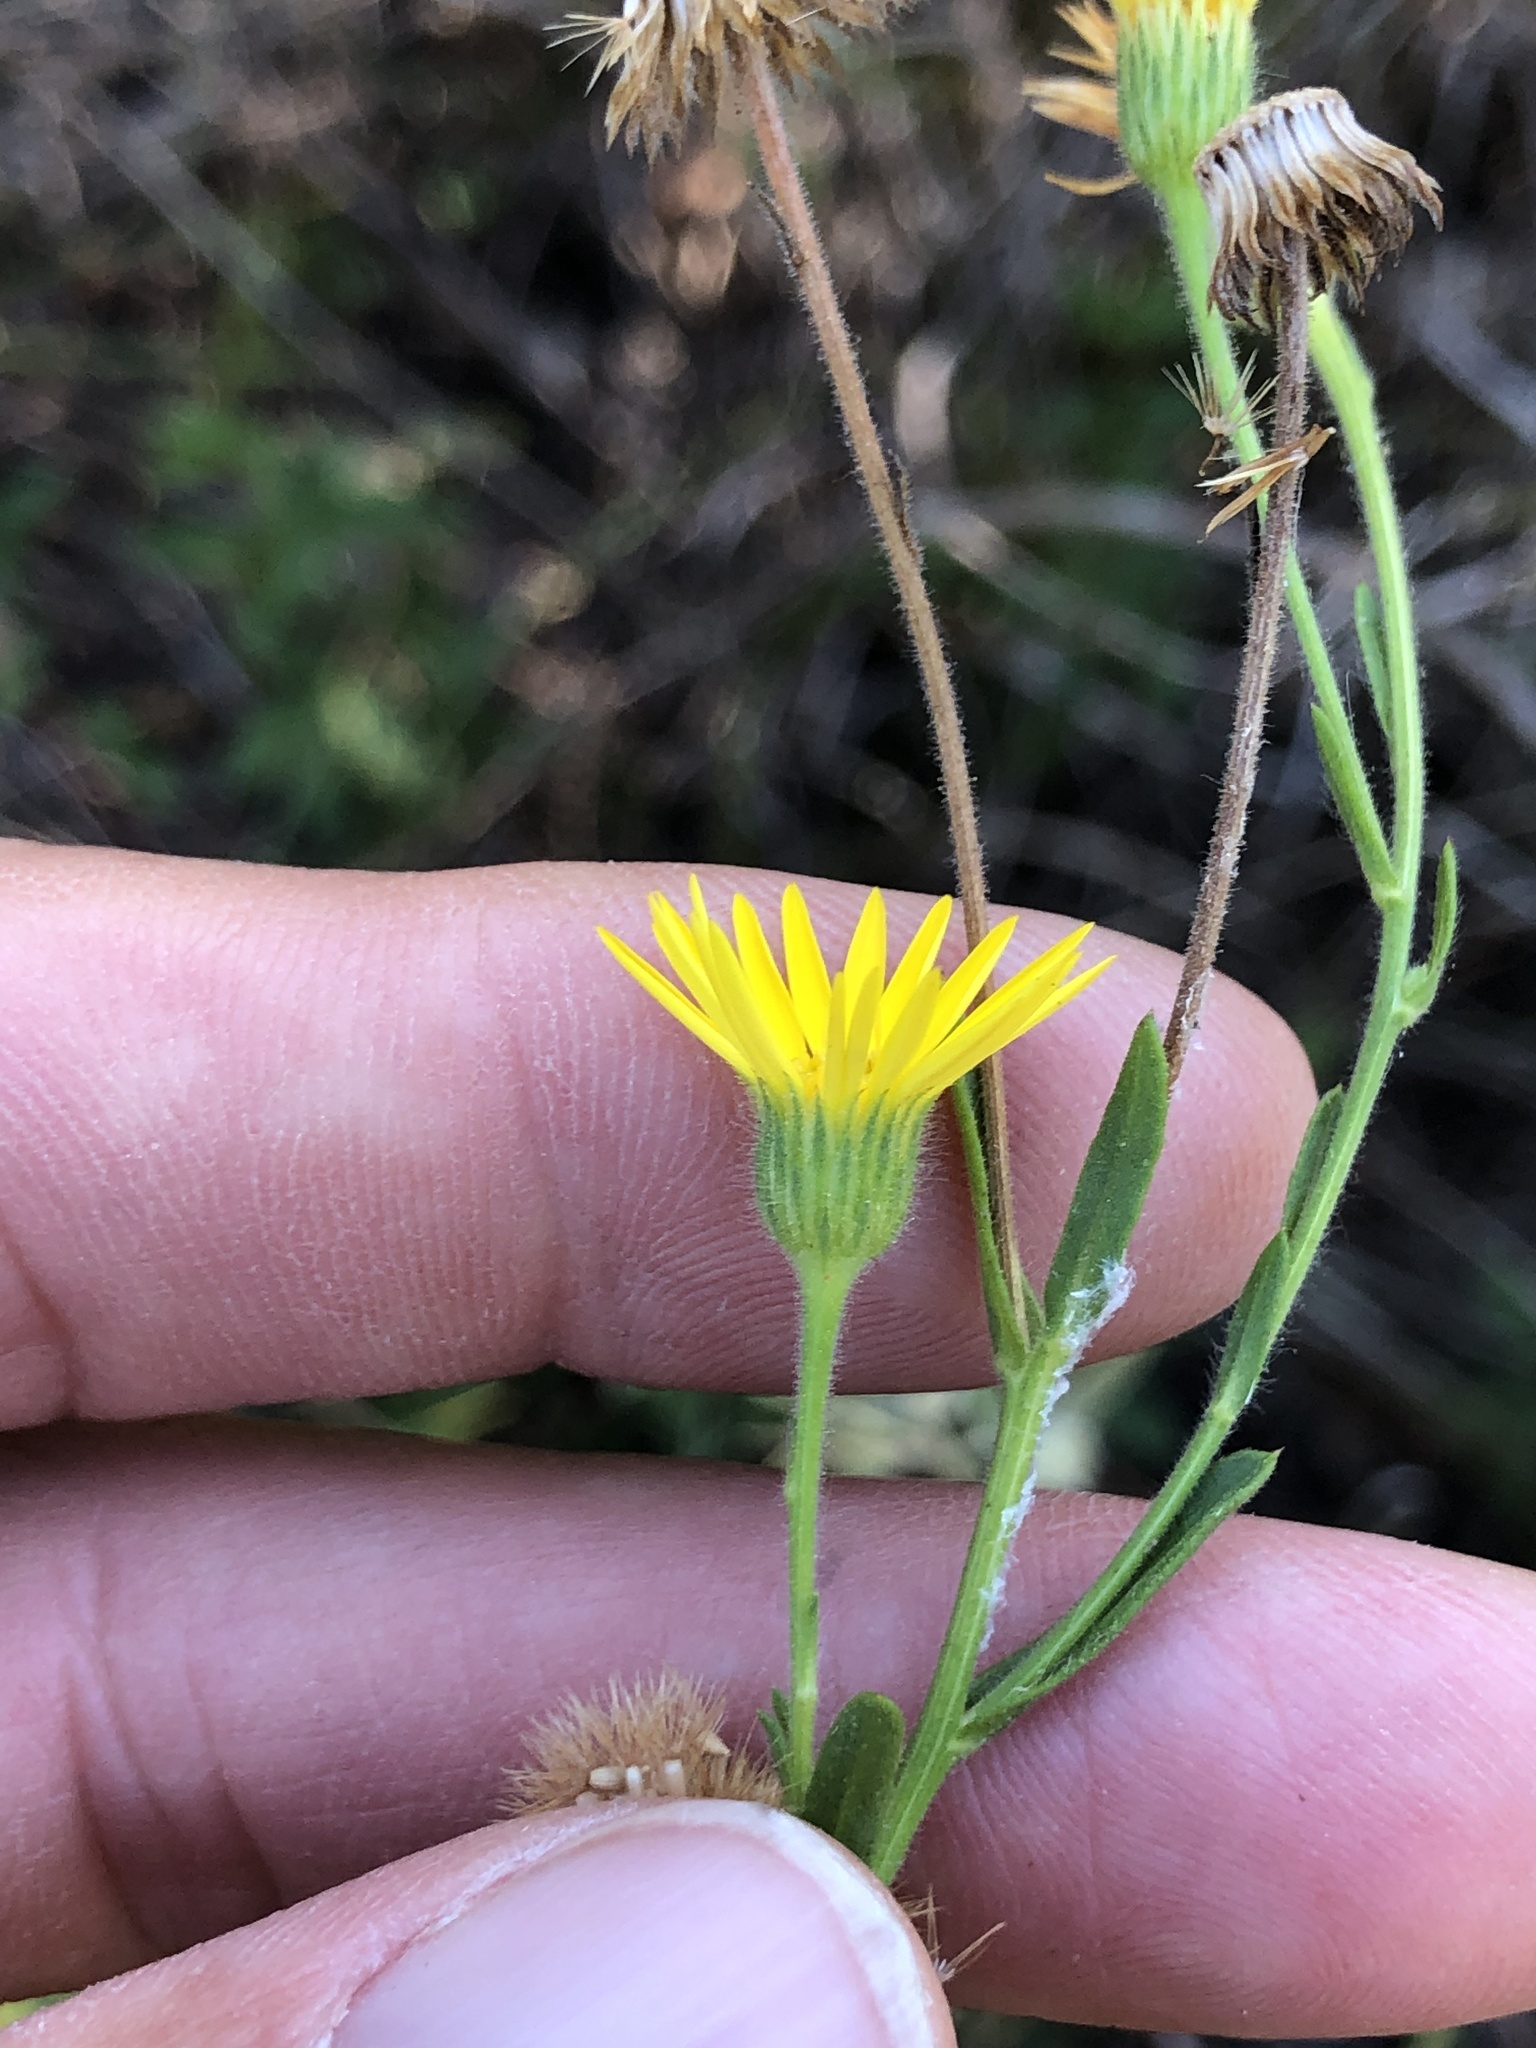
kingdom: Plantae
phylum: Tracheophyta
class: Magnoliopsida
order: Asterales
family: Asteraceae
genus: Bradburia
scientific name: Bradburia pilosa
